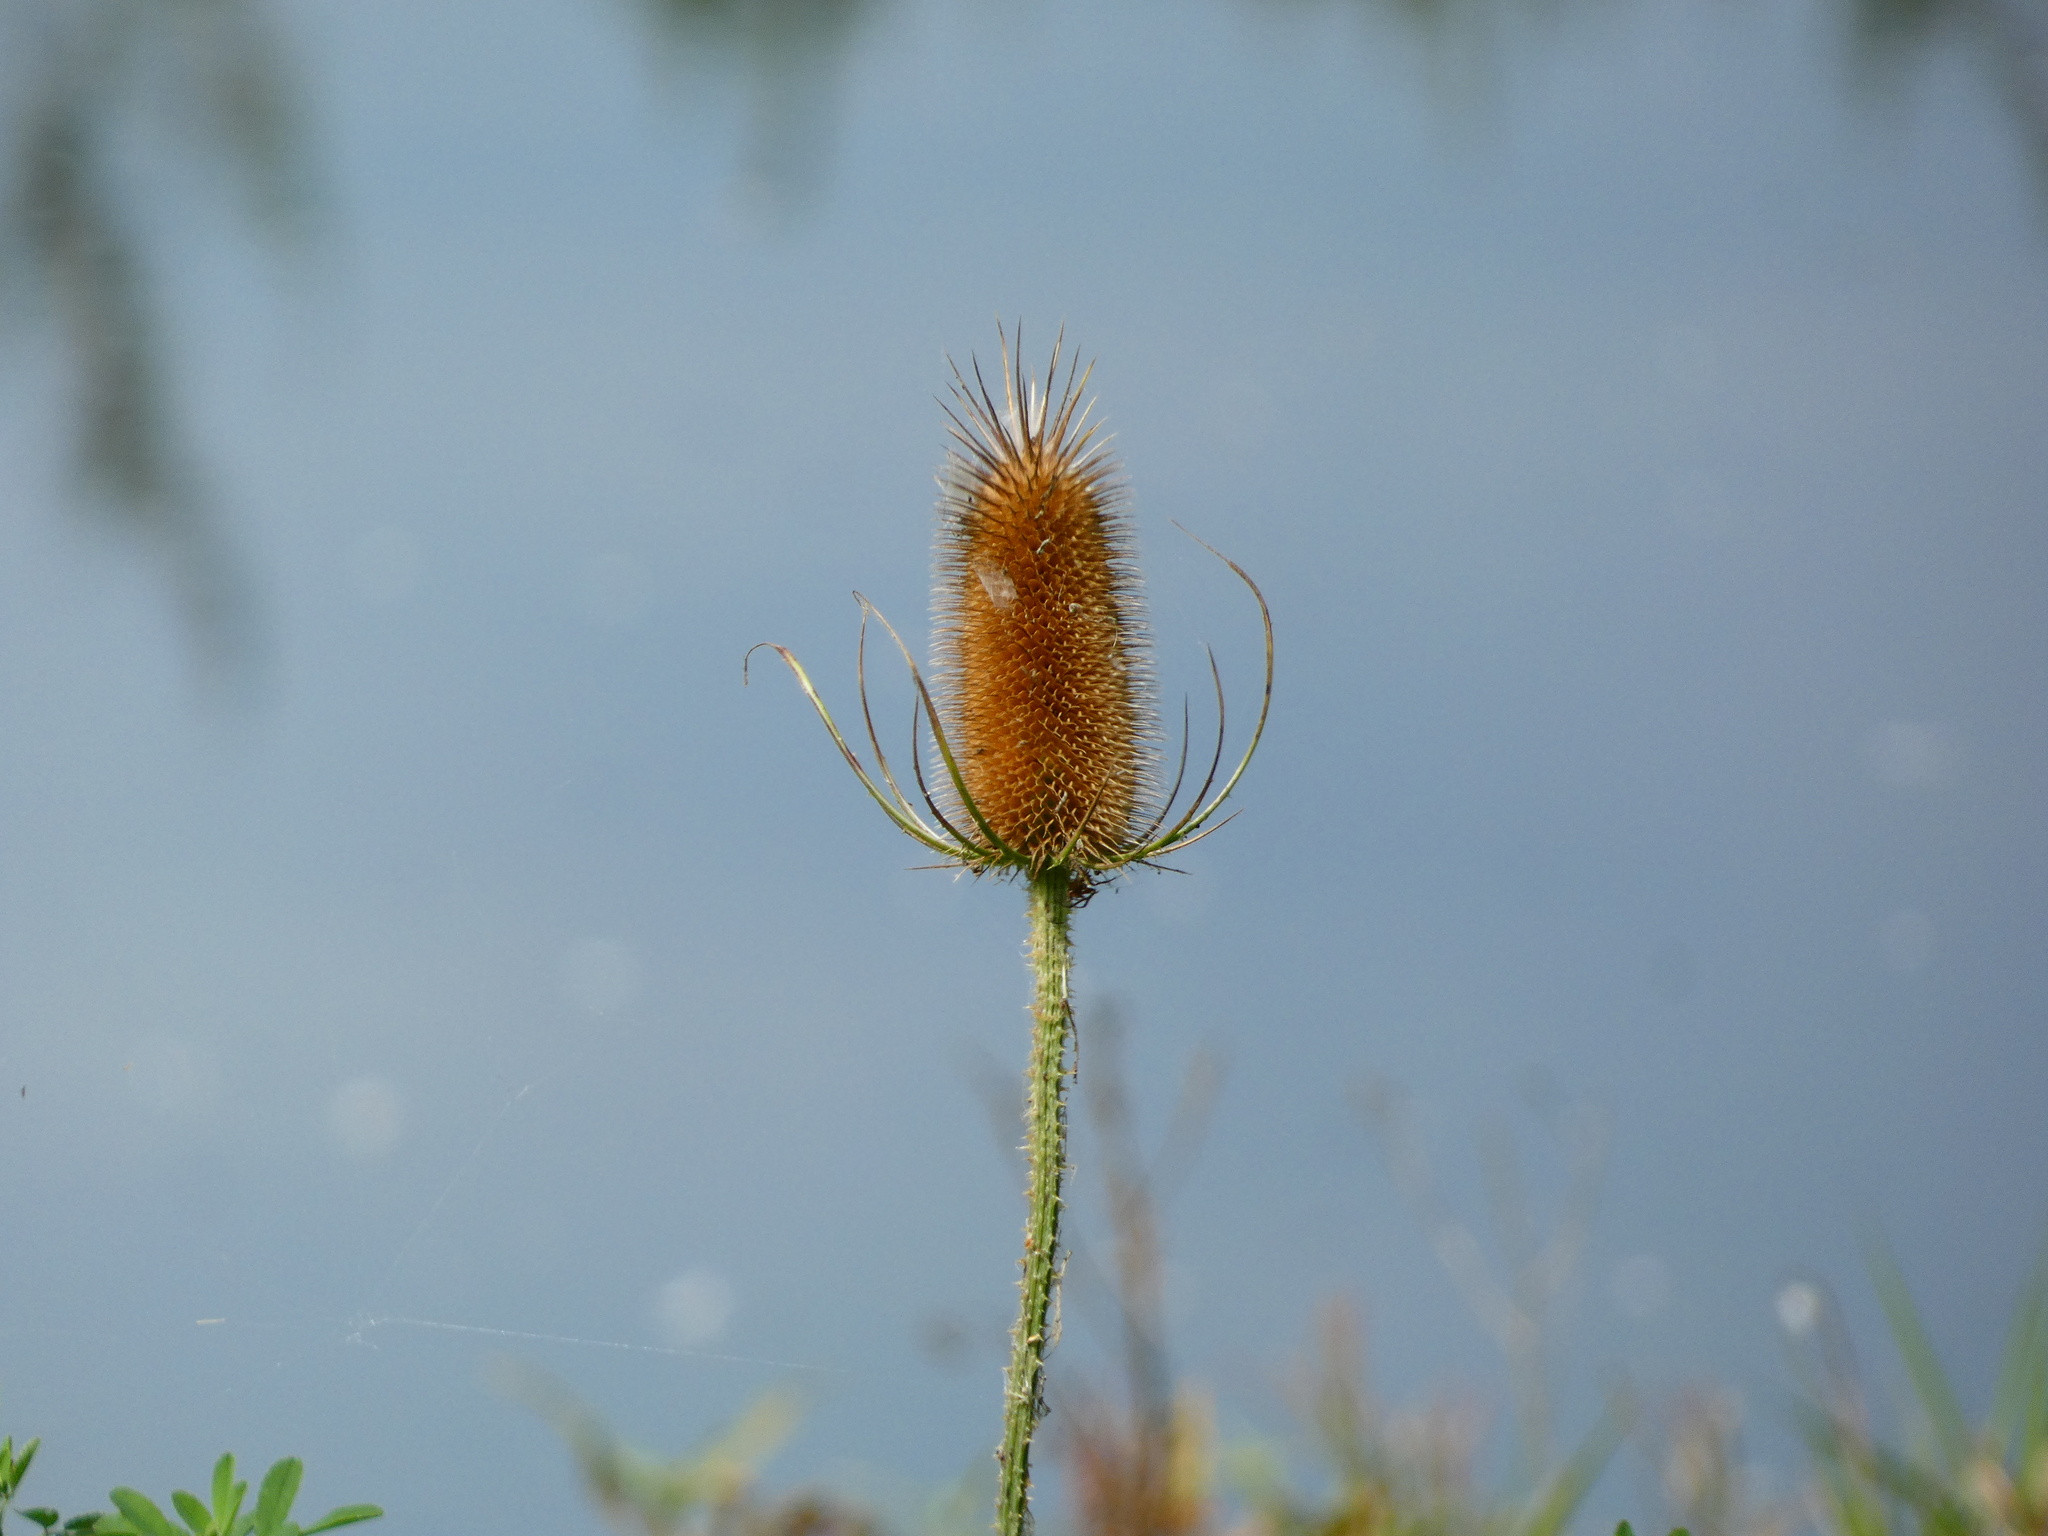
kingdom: Plantae
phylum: Tracheophyta
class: Magnoliopsida
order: Dipsacales
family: Caprifoliaceae
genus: Dipsacus
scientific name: Dipsacus fullonum
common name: Teasel
